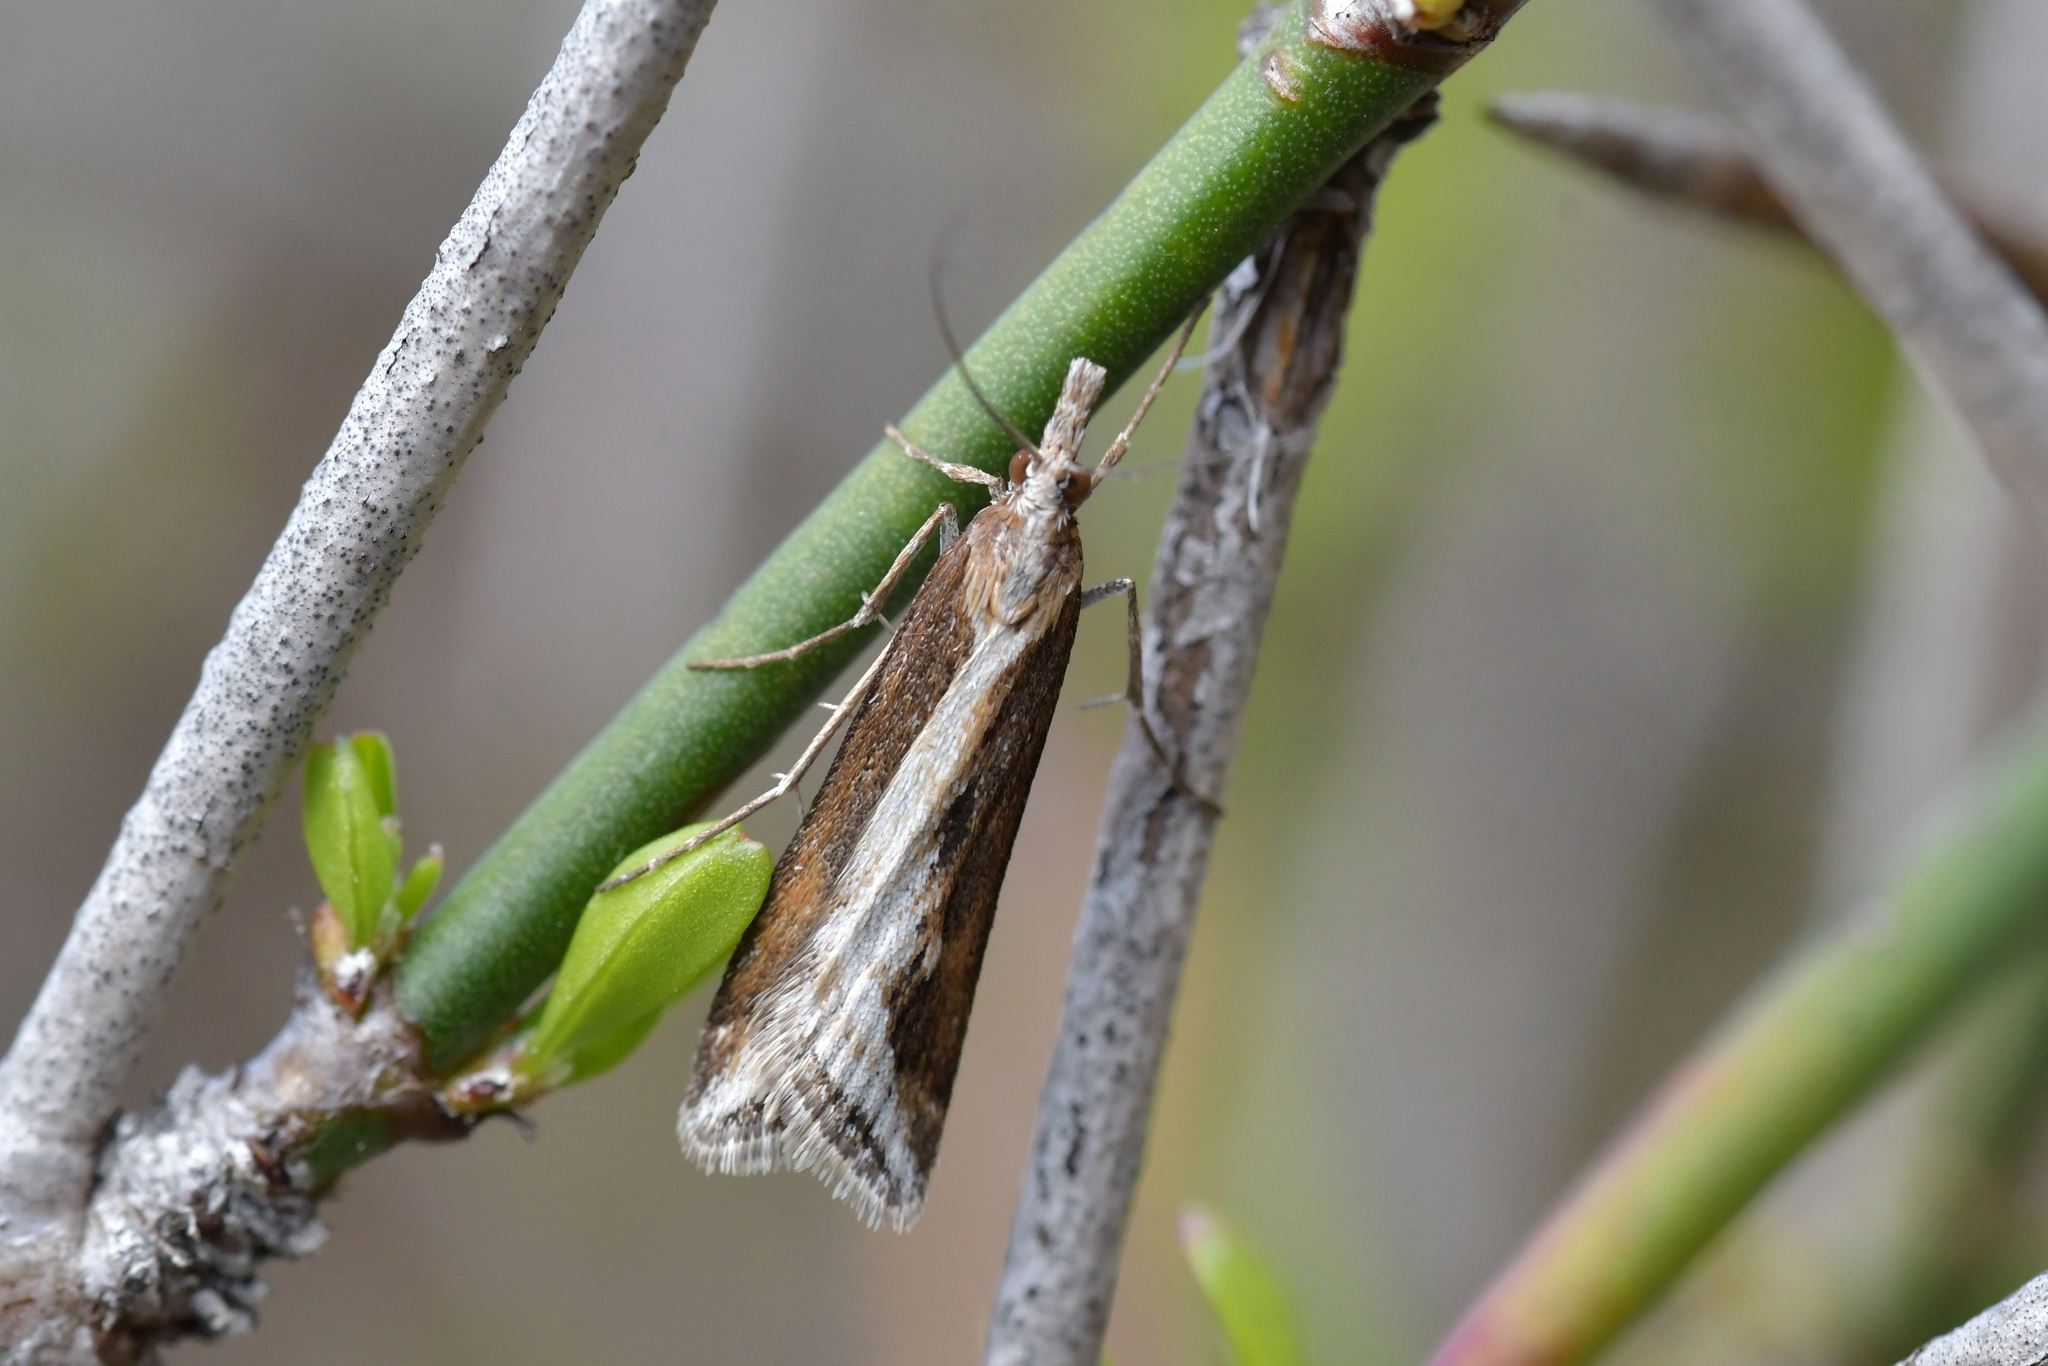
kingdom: Animalia
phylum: Arthropoda
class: Insecta
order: Lepidoptera
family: Crambidae
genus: Scoparia
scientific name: Scoparia exilis
